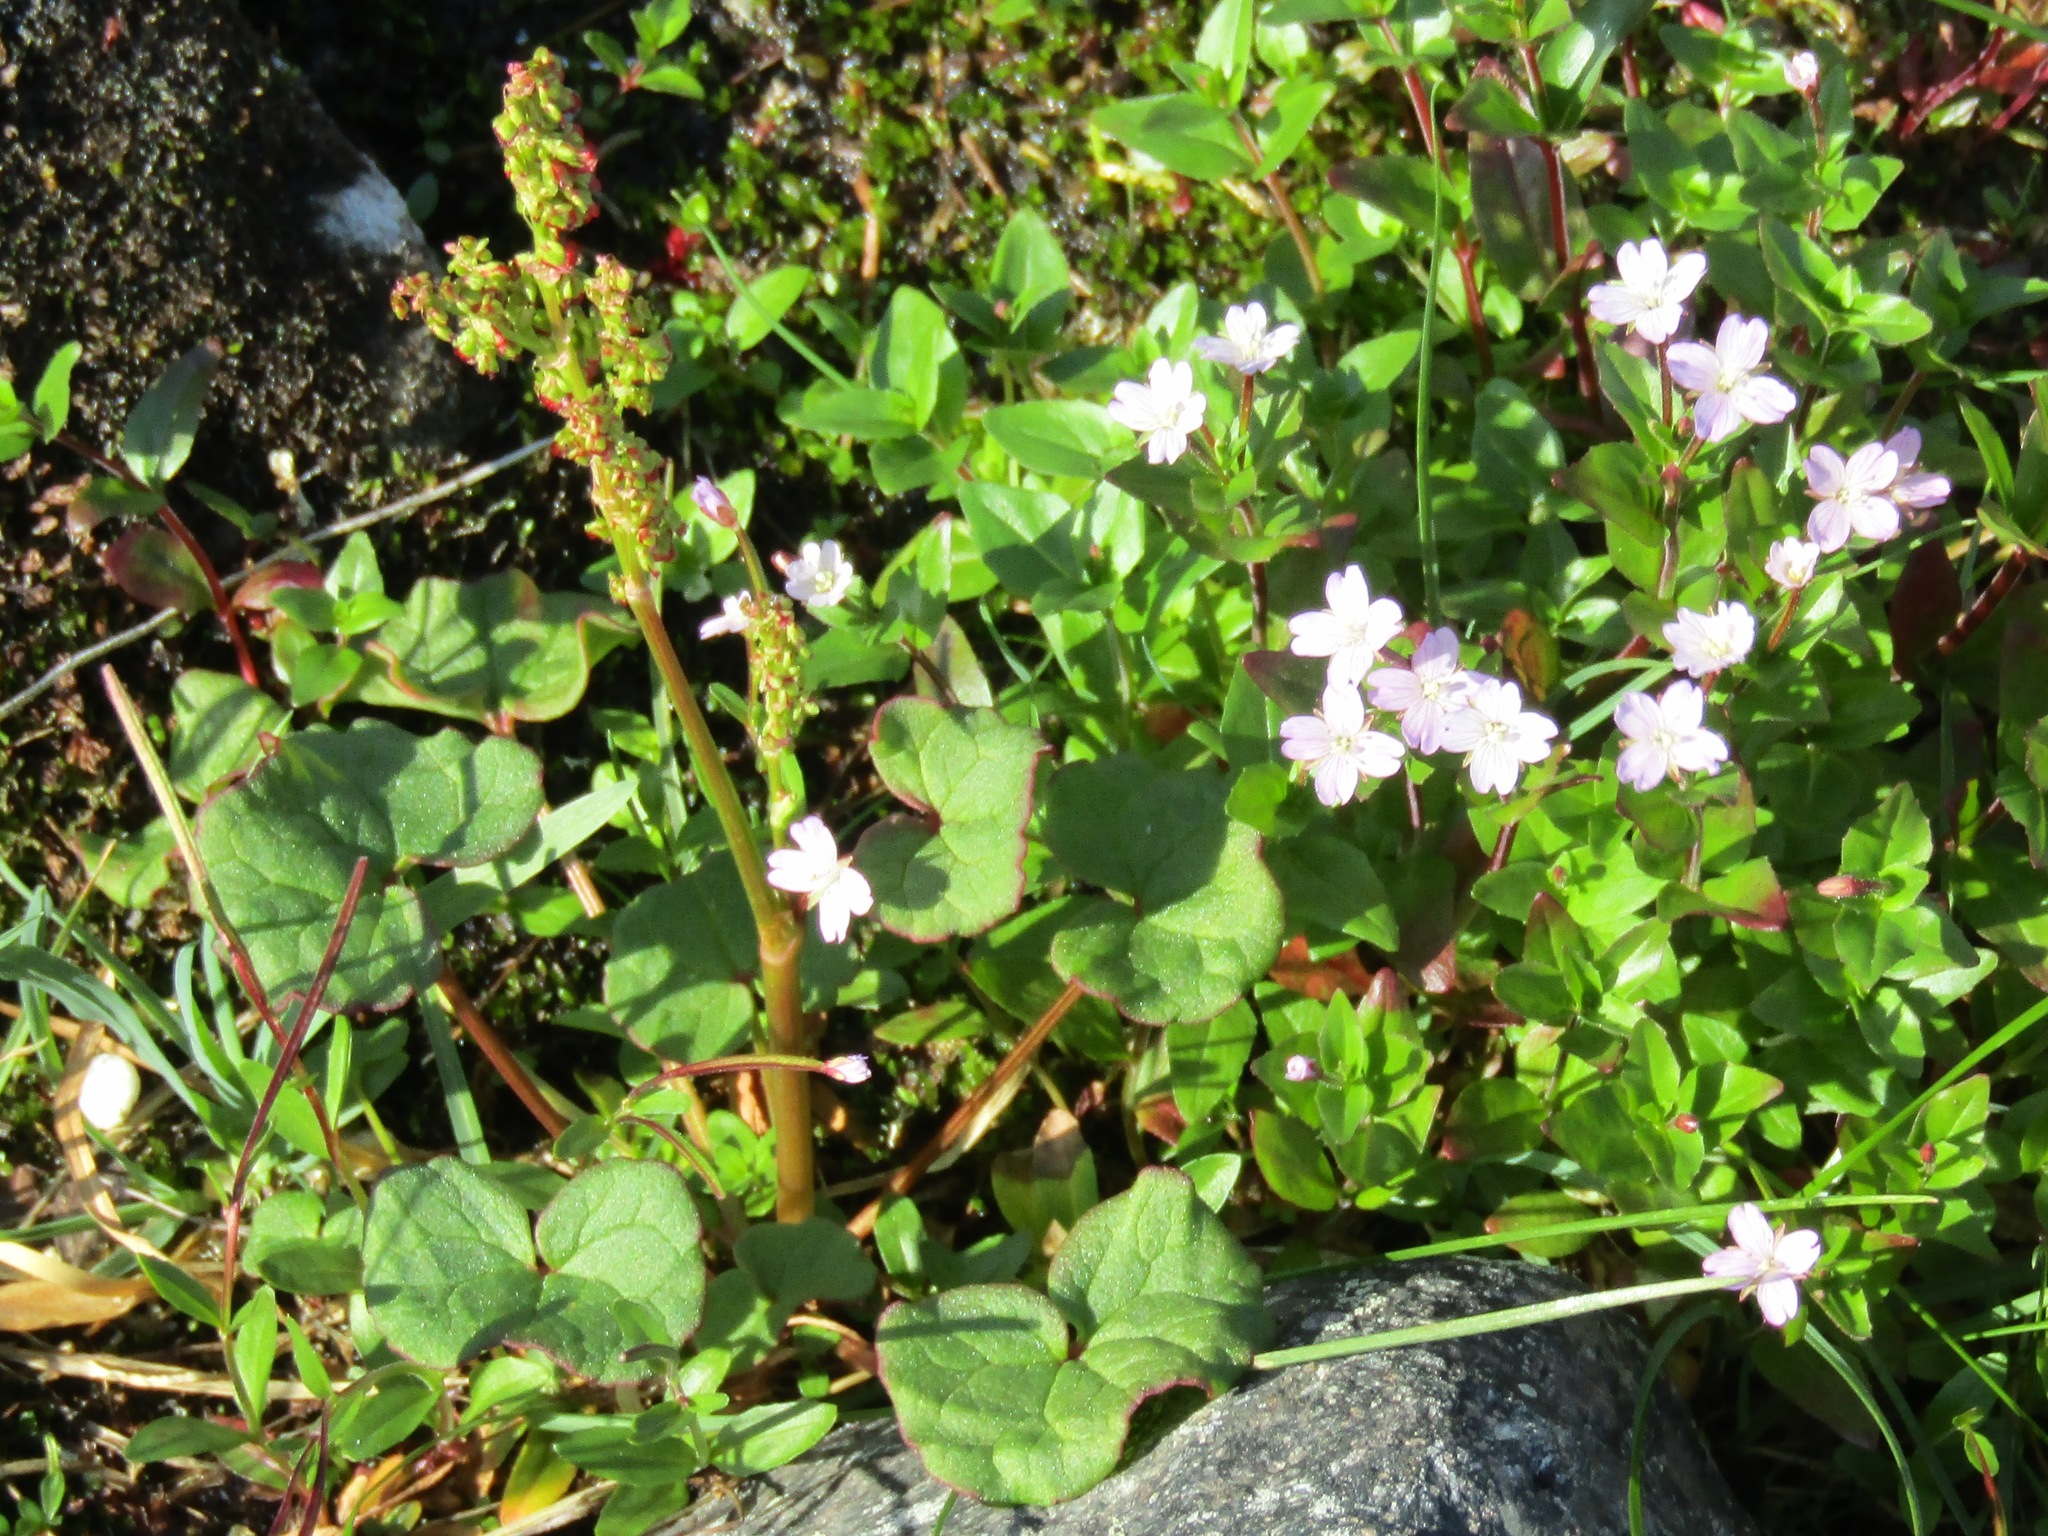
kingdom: Plantae
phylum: Tracheophyta
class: Magnoliopsida
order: Caryophyllales
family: Polygonaceae
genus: Oxyria
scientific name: Oxyria digyna
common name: Alpine mountain-sorrel
